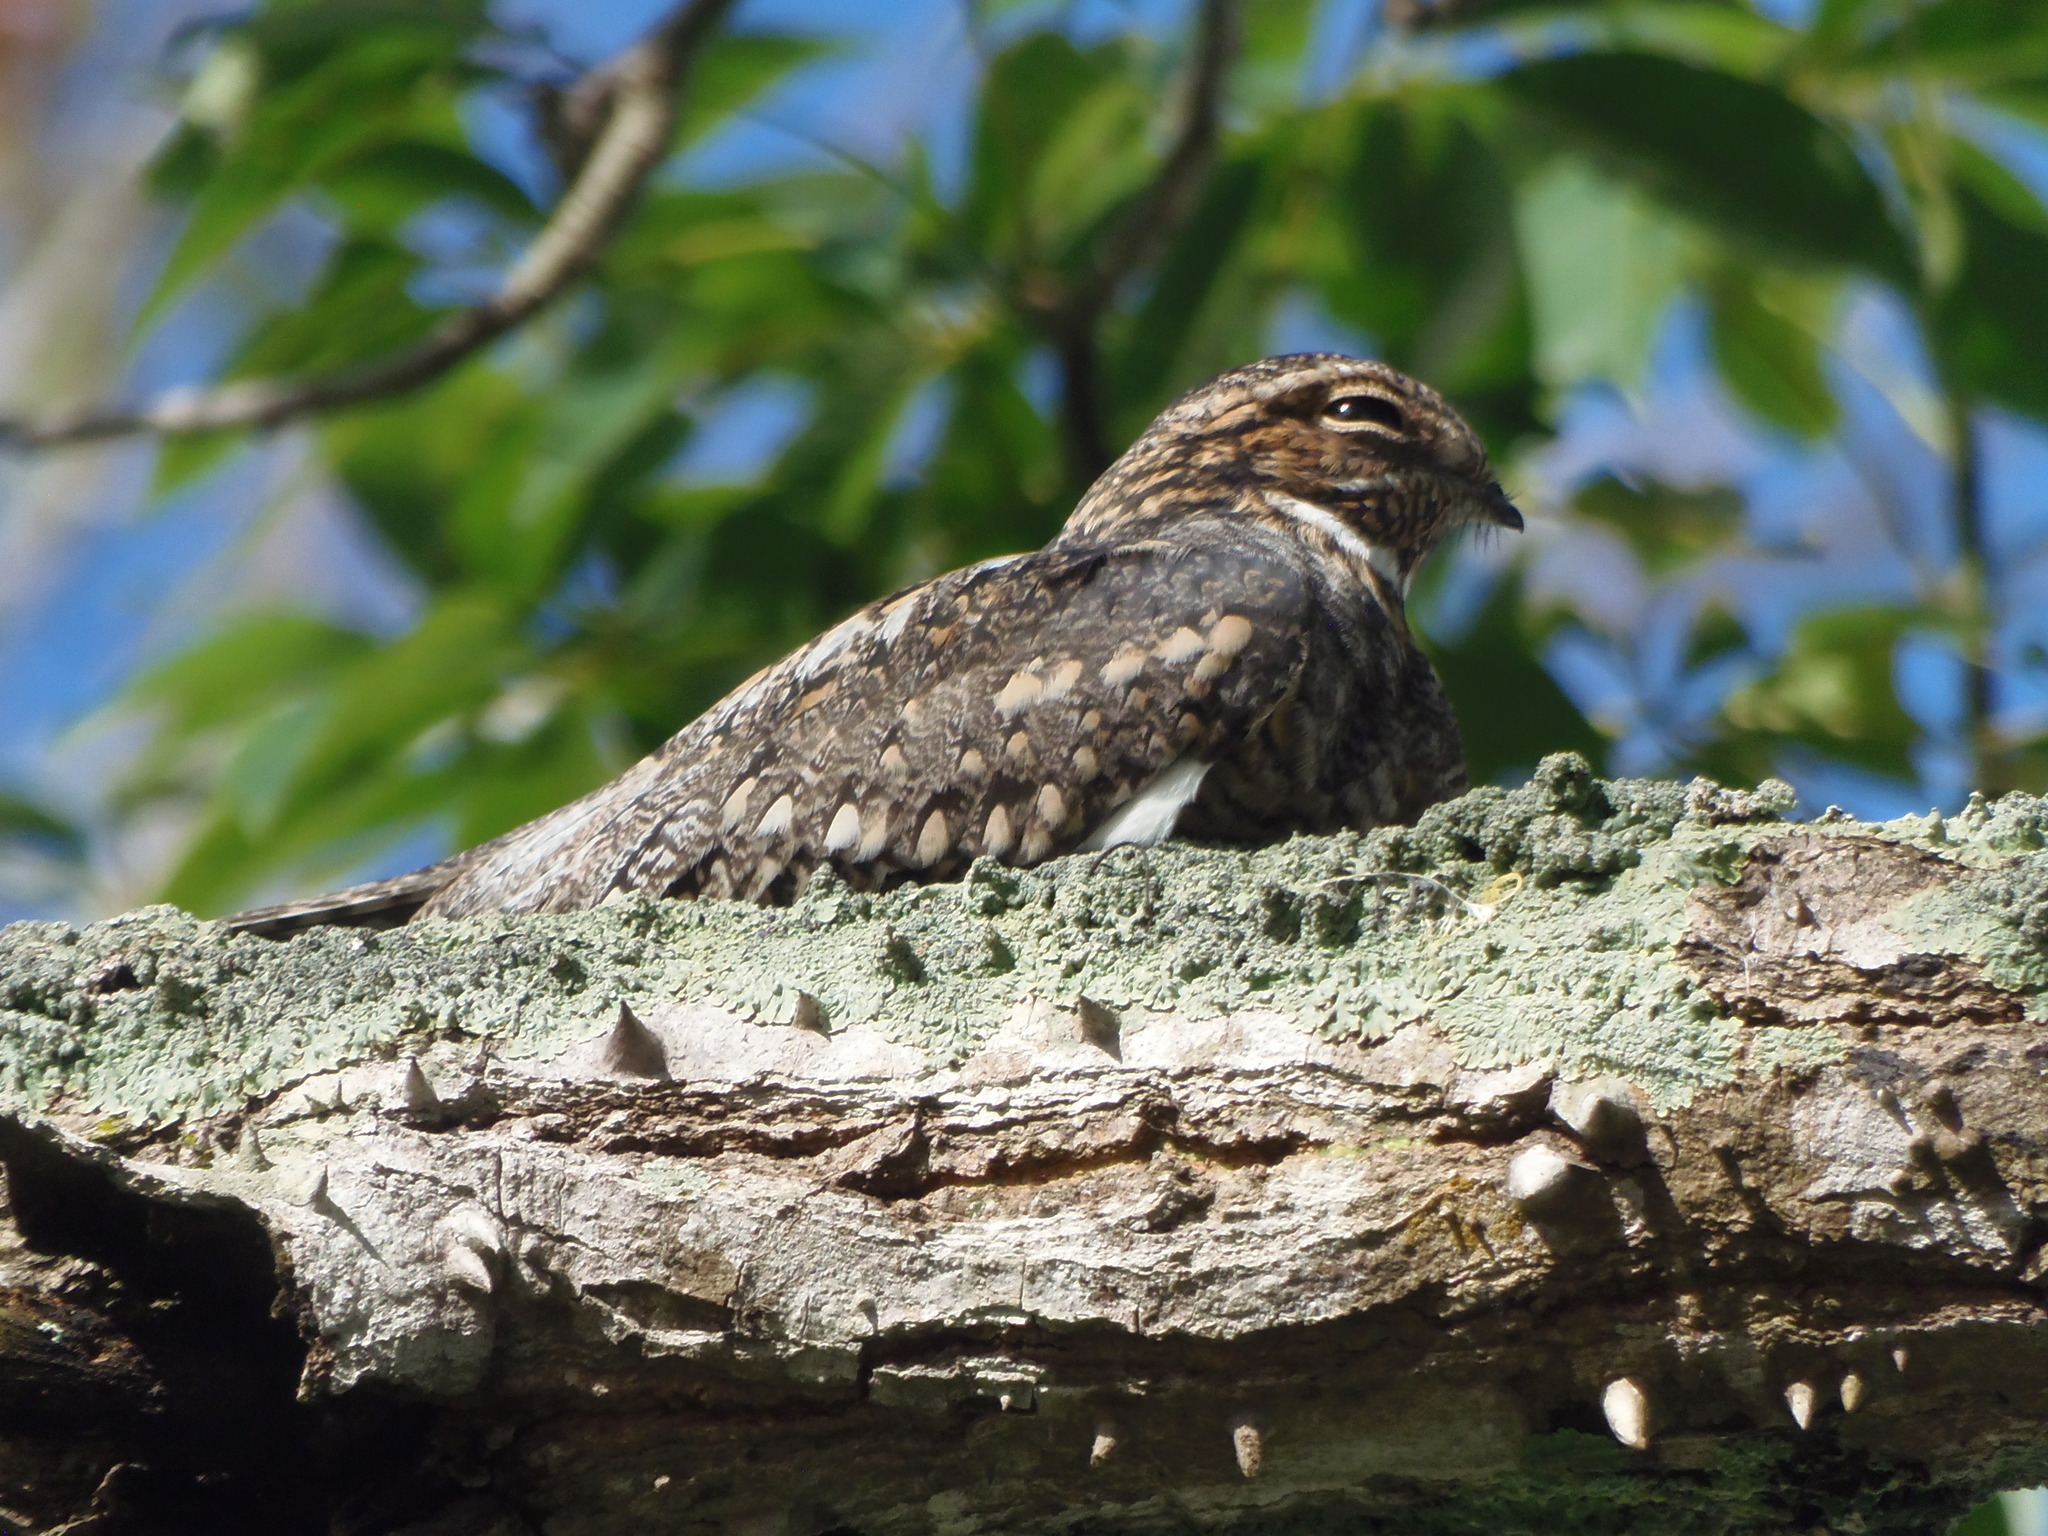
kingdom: Animalia
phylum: Chordata
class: Aves
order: Caprimulgiformes
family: Caprimulgidae
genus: Chordeiles
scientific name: Chordeiles acutipennis
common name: Lesser nighthawk
